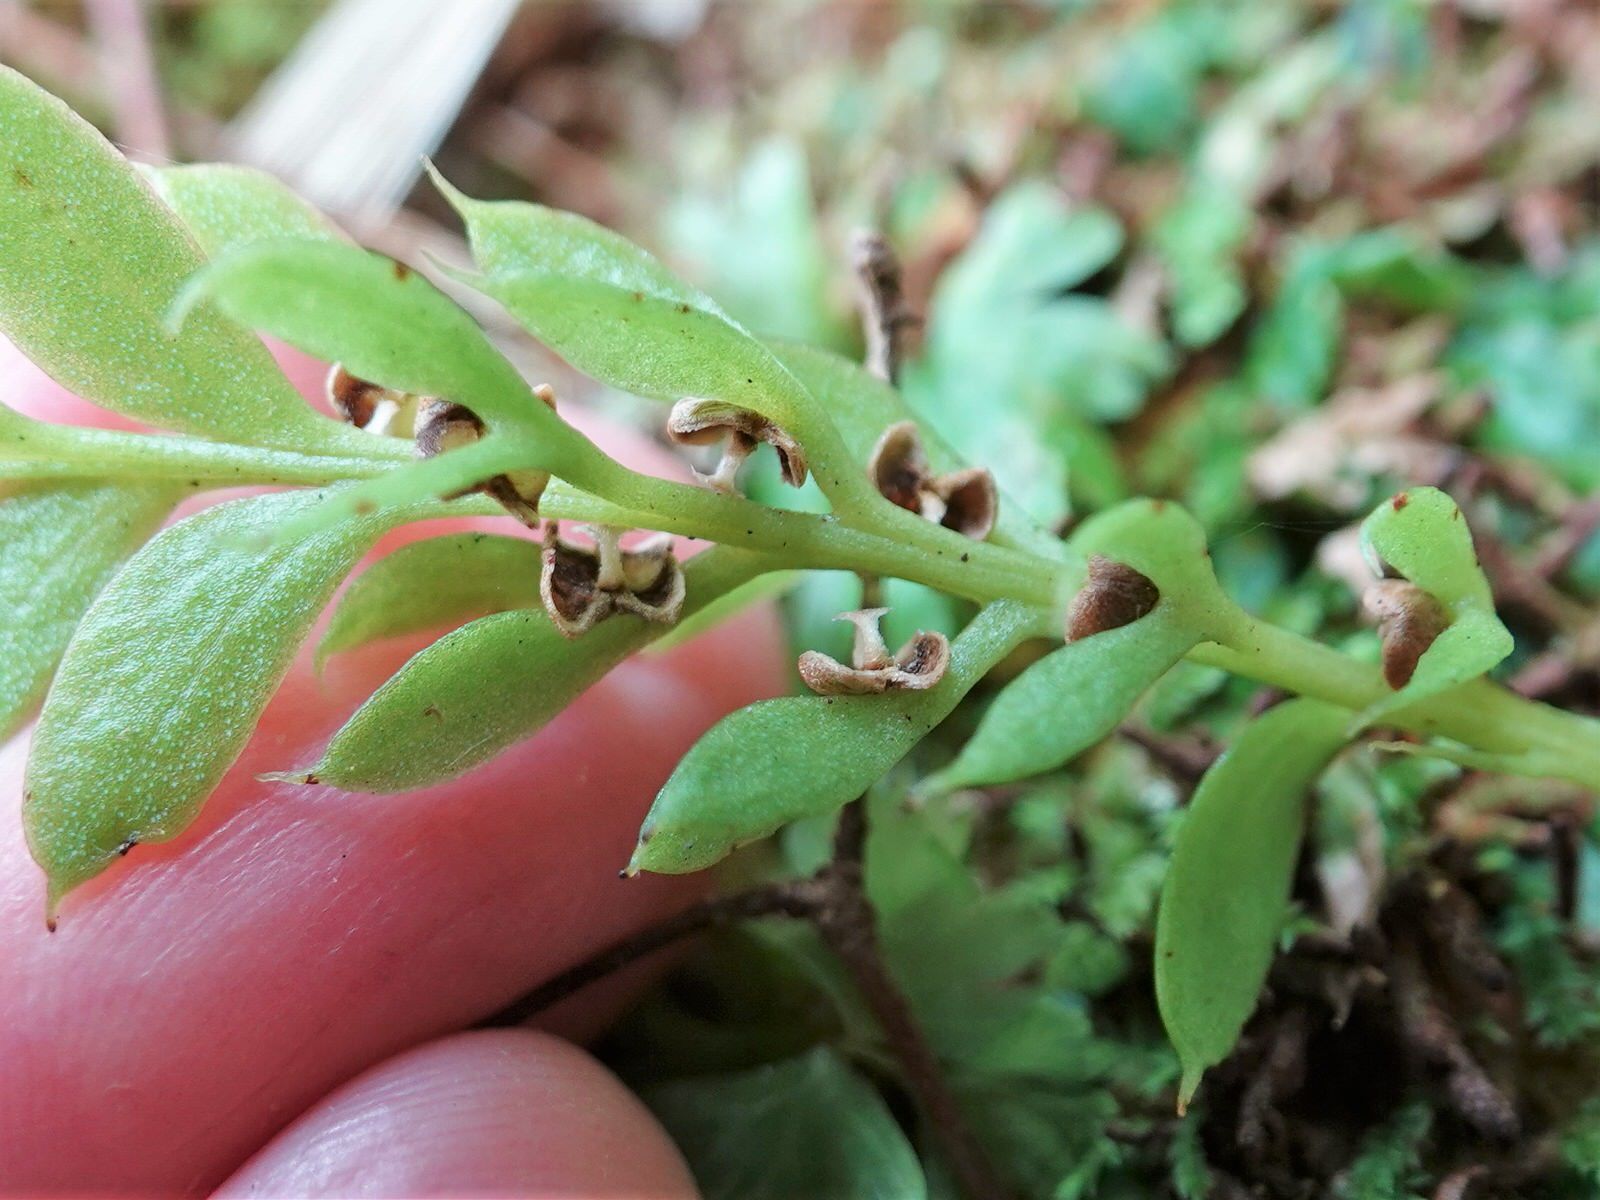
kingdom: Plantae
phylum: Tracheophyta
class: Polypodiopsida
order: Psilotales
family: Psilotaceae
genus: Tmesipteris
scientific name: Tmesipteris lanceolata
